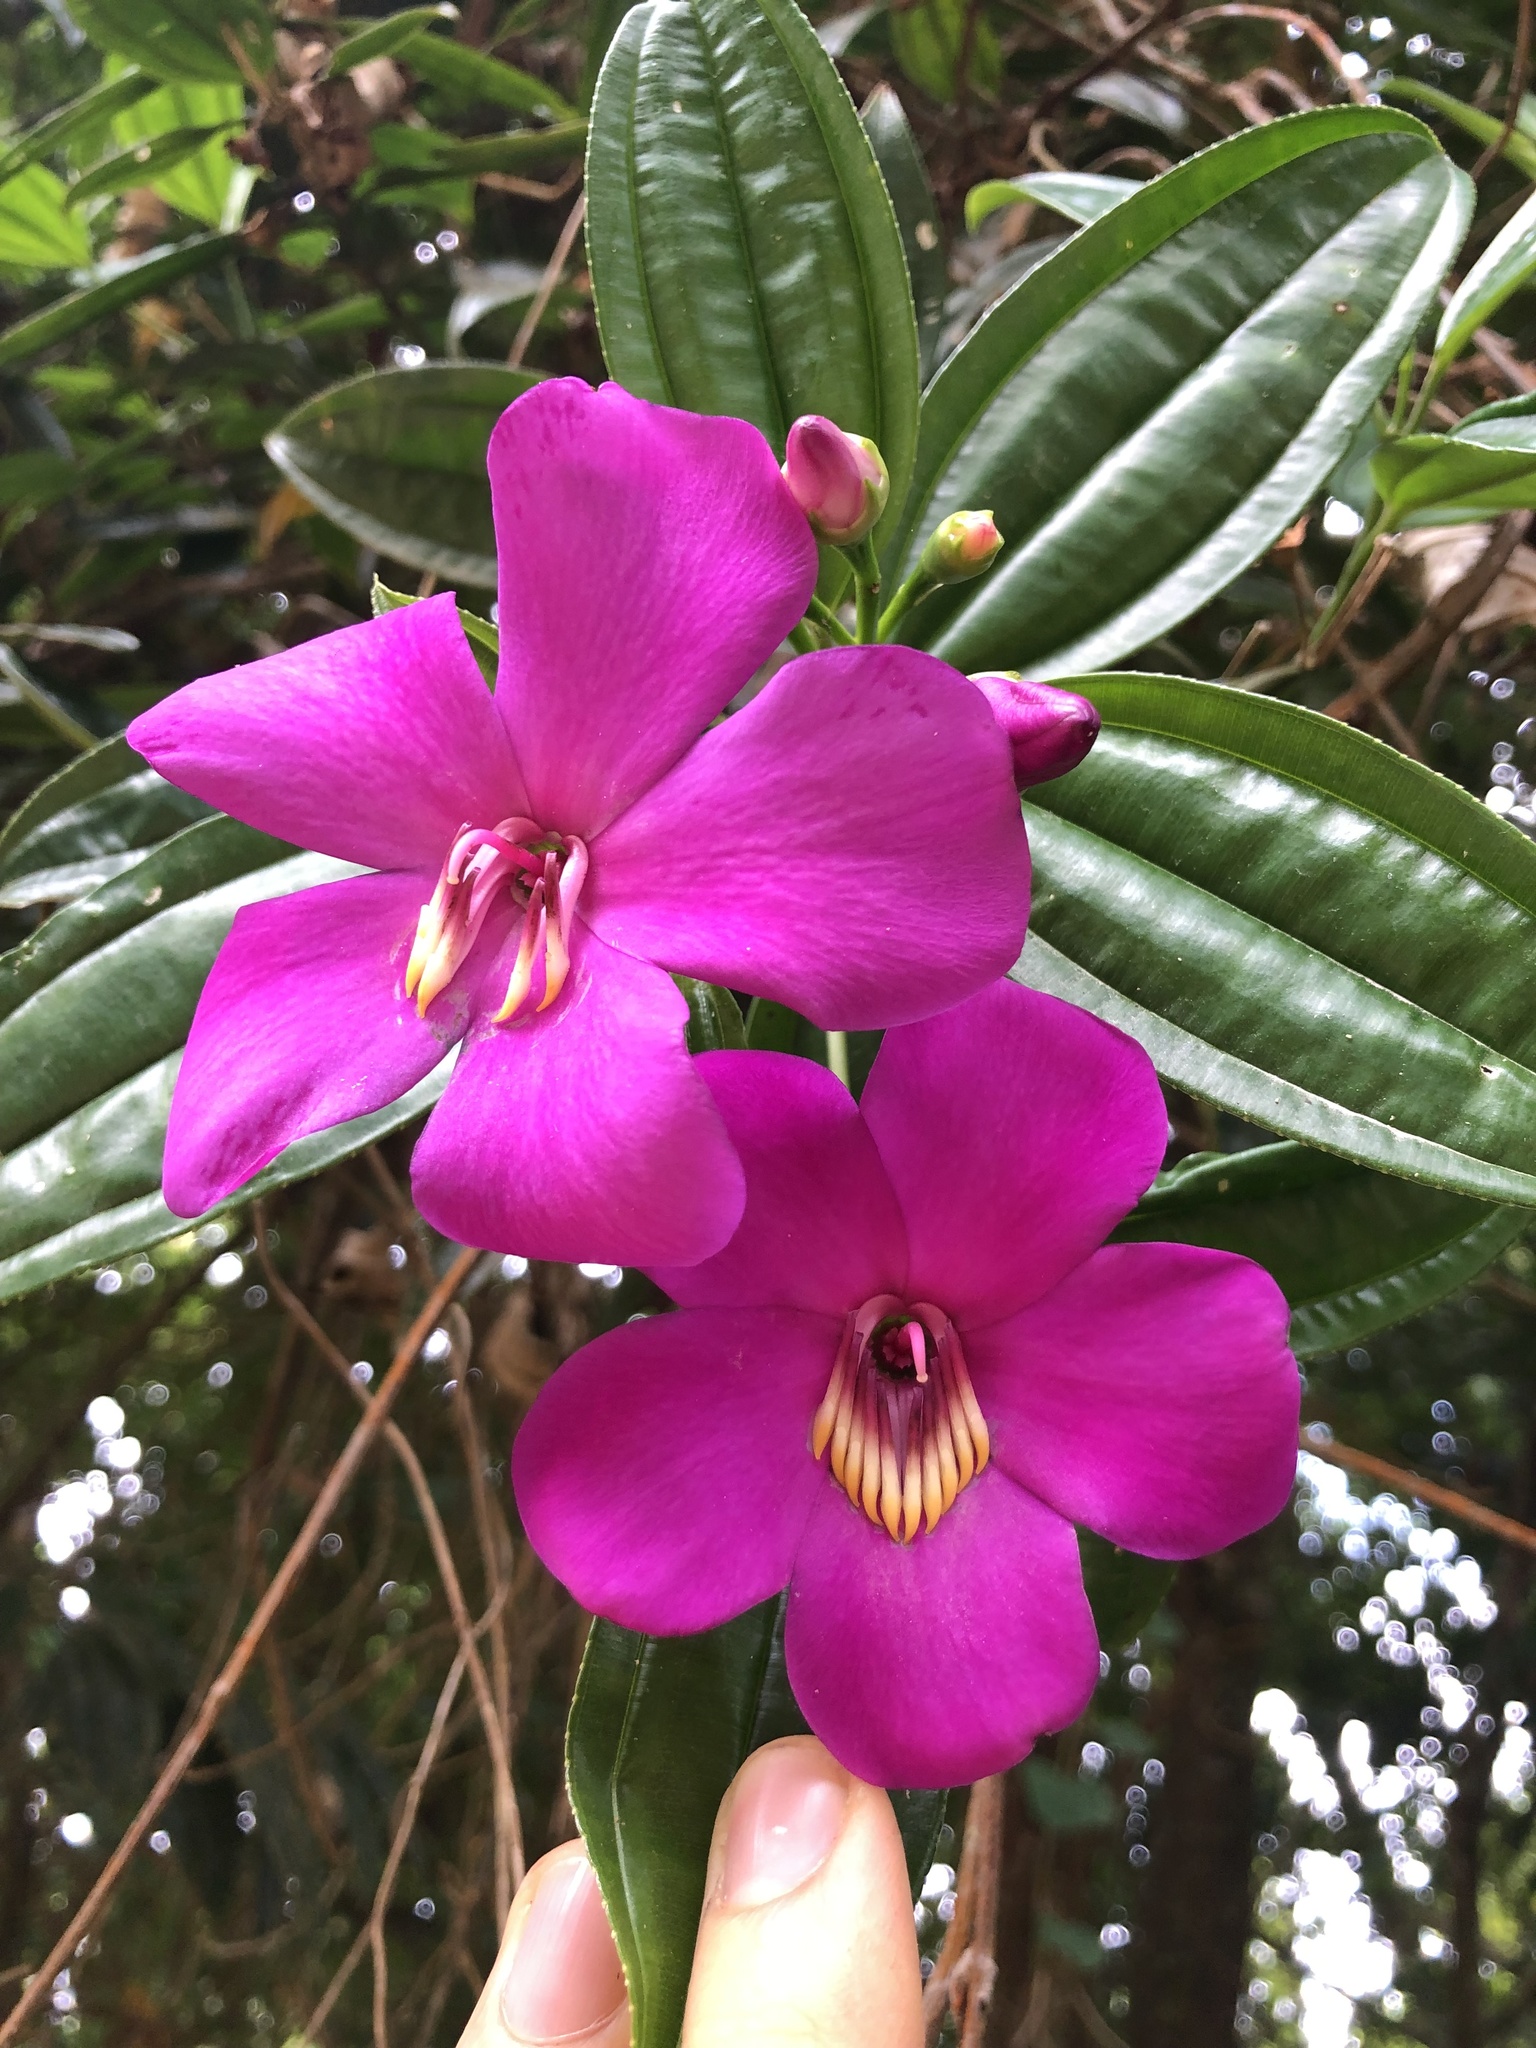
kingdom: Plantae
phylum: Tracheophyta
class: Magnoliopsida
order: Myrtales
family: Melastomataceae
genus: Meriania
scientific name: Meriania speciosa
